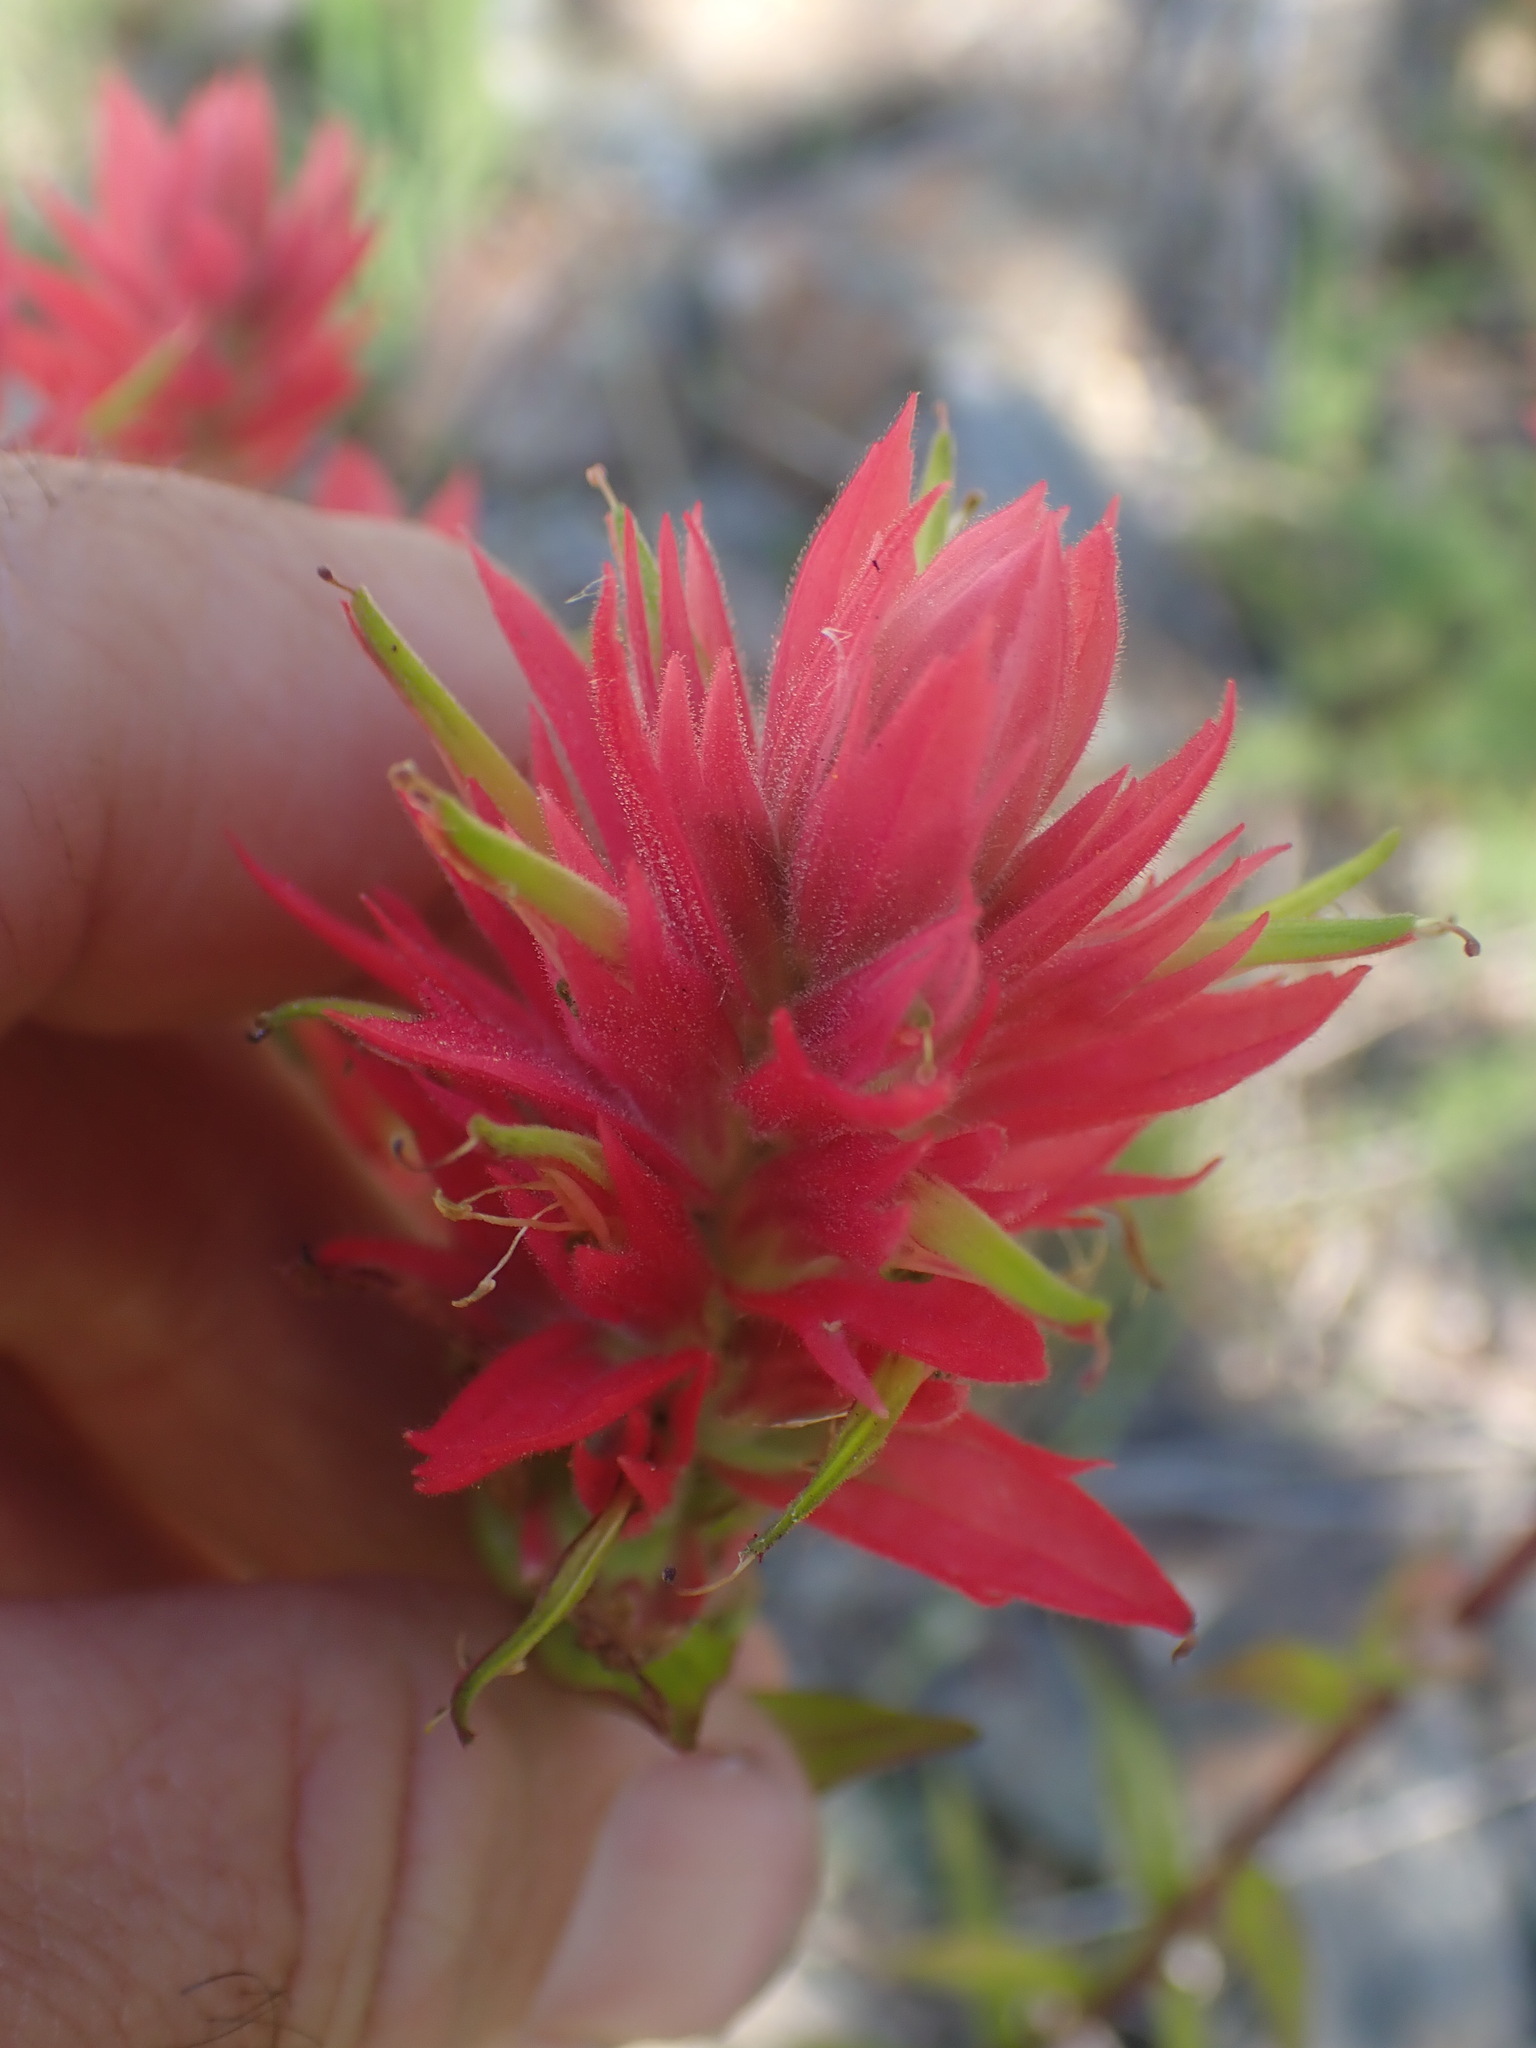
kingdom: Plantae
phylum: Tracheophyta
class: Magnoliopsida
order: Lamiales
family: Orobanchaceae
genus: Castilleja
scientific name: Castilleja miniata
